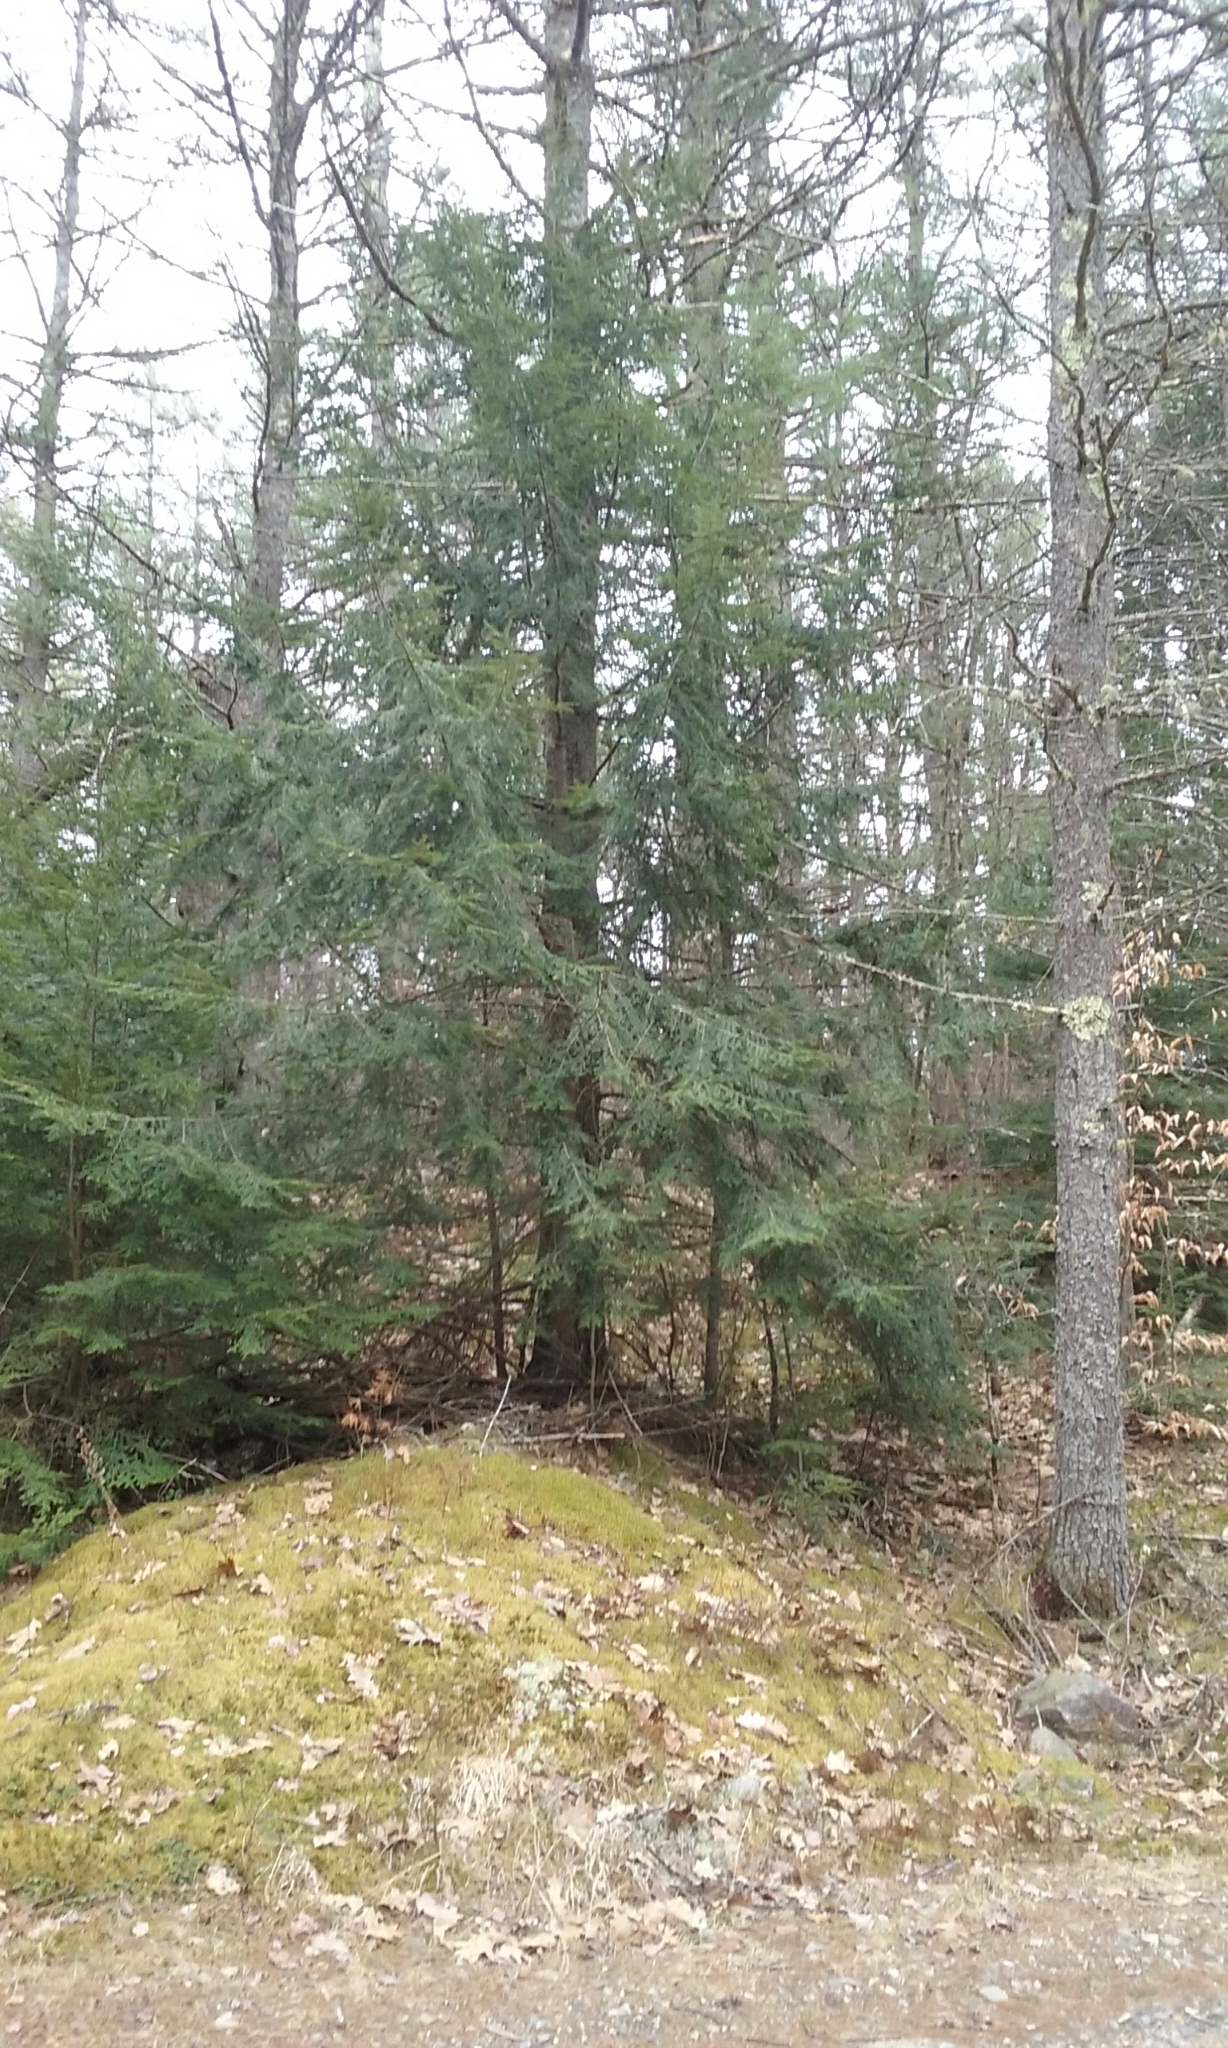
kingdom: Plantae
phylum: Tracheophyta
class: Pinopsida
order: Pinales
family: Pinaceae
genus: Tsuga
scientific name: Tsuga canadensis
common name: Eastern hemlock
